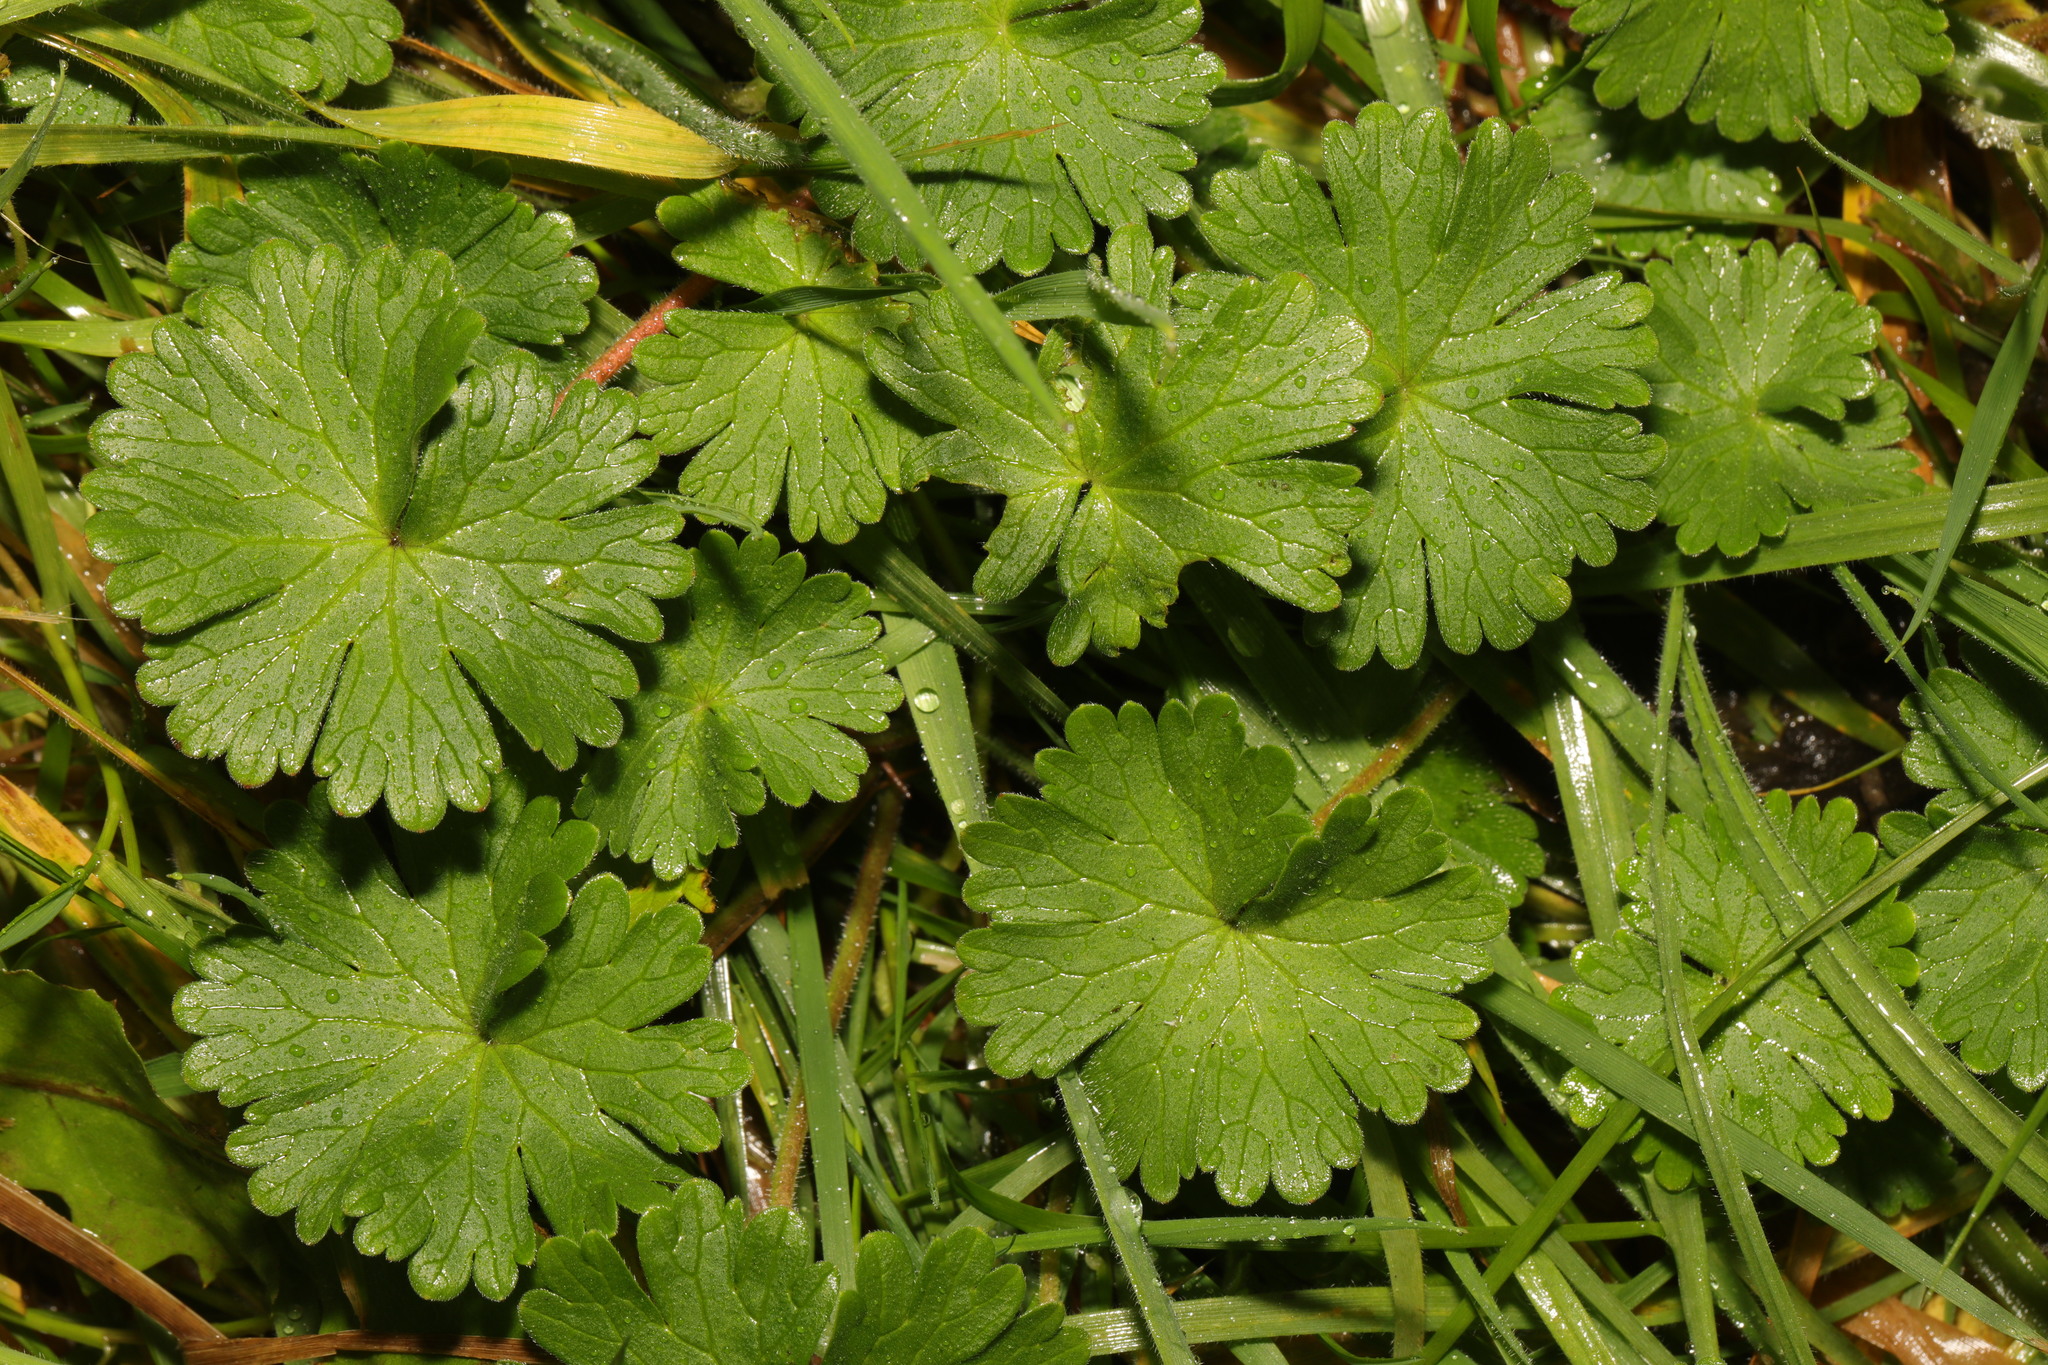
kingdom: Plantae
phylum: Tracheophyta
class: Magnoliopsida
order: Geraniales
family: Geraniaceae
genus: Geranium
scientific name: Geranium molle
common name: Dove's-foot crane's-bill
